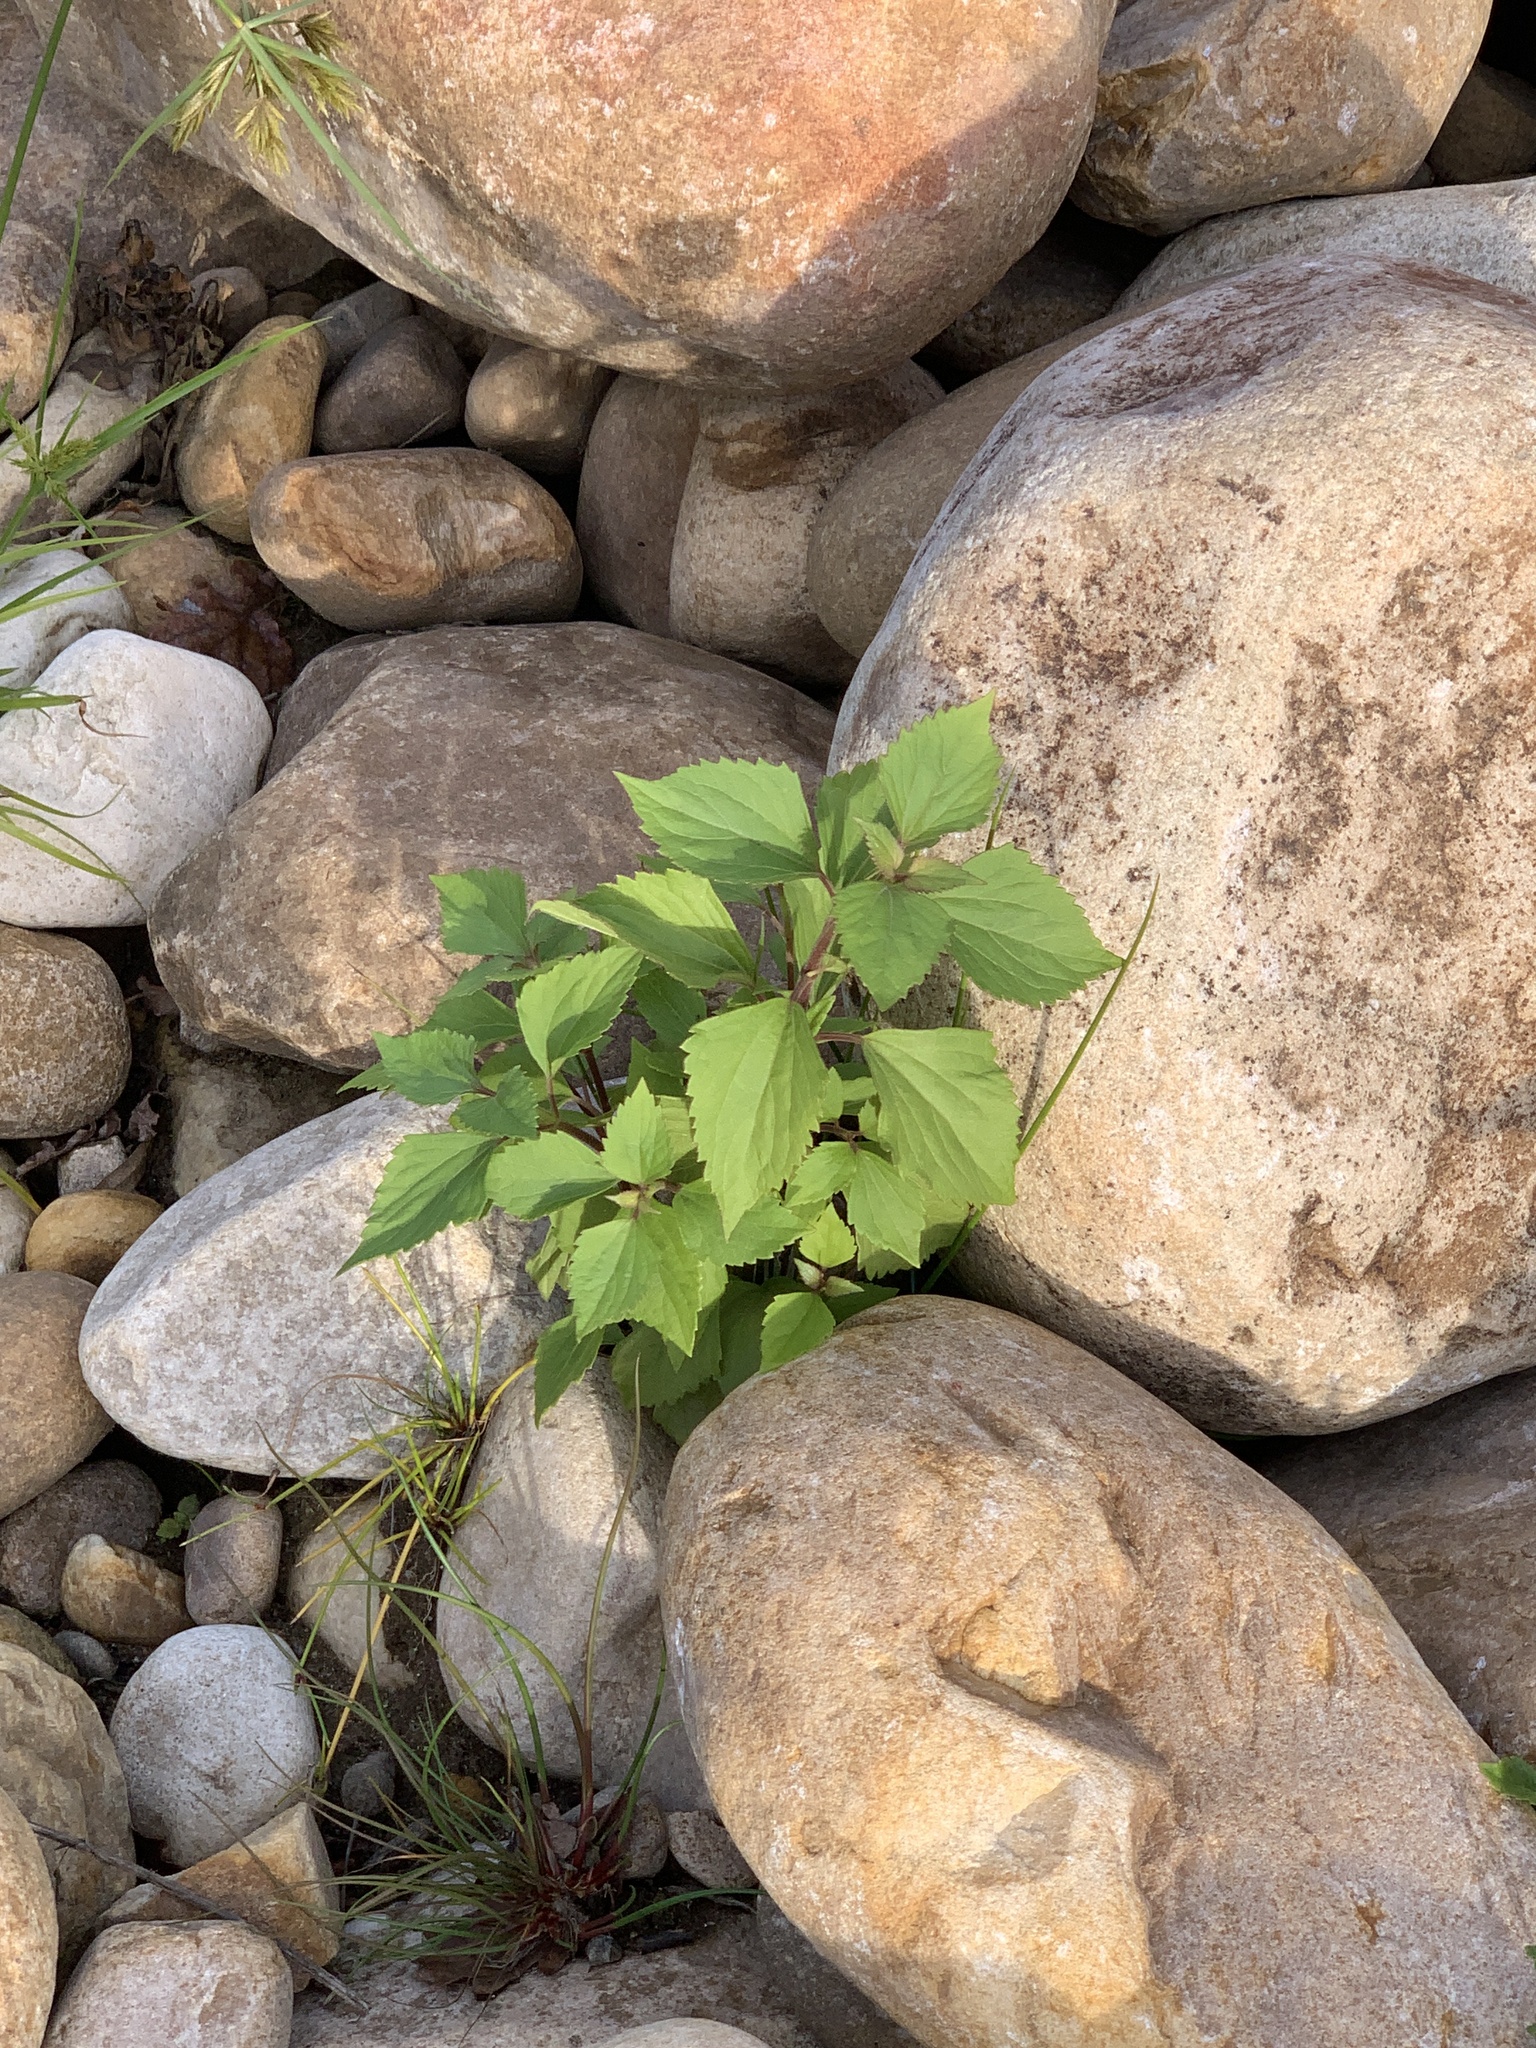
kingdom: Plantae
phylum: Tracheophyta
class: Magnoliopsida
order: Asterales
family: Asteraceae
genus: Ageratina
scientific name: Ageratina adenophora
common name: Sticky snakeroot
